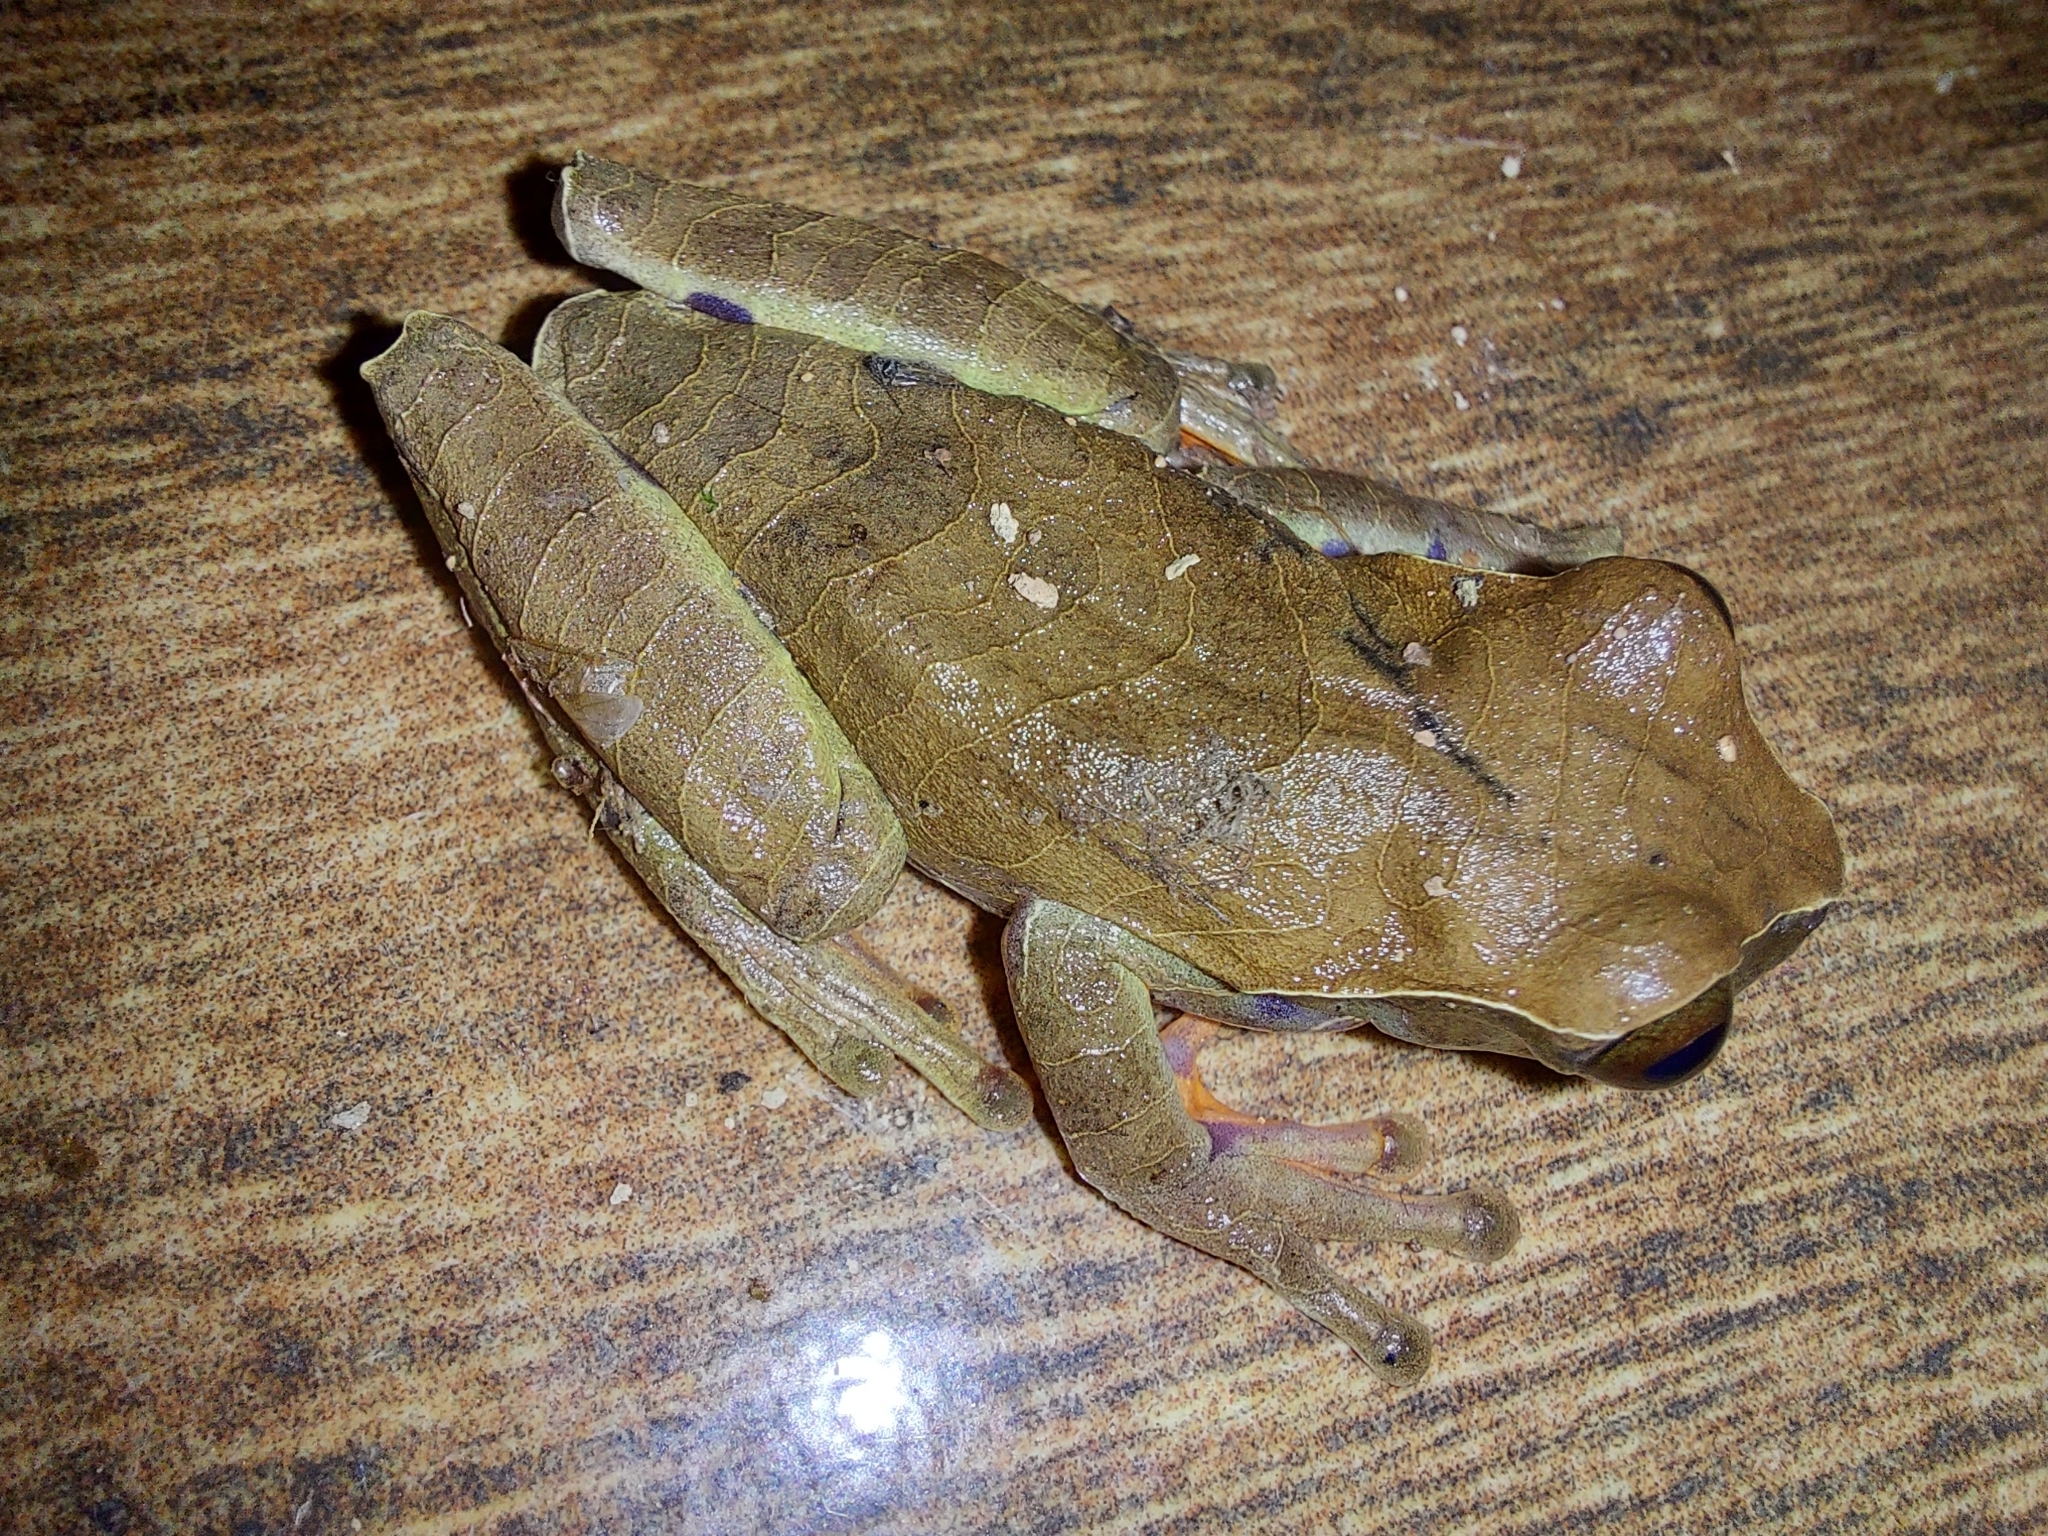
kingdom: Animalia
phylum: Chordata
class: Amphibia
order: Anura
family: Hylidae
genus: Dendropsophus
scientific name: Dendropsophus anceps
